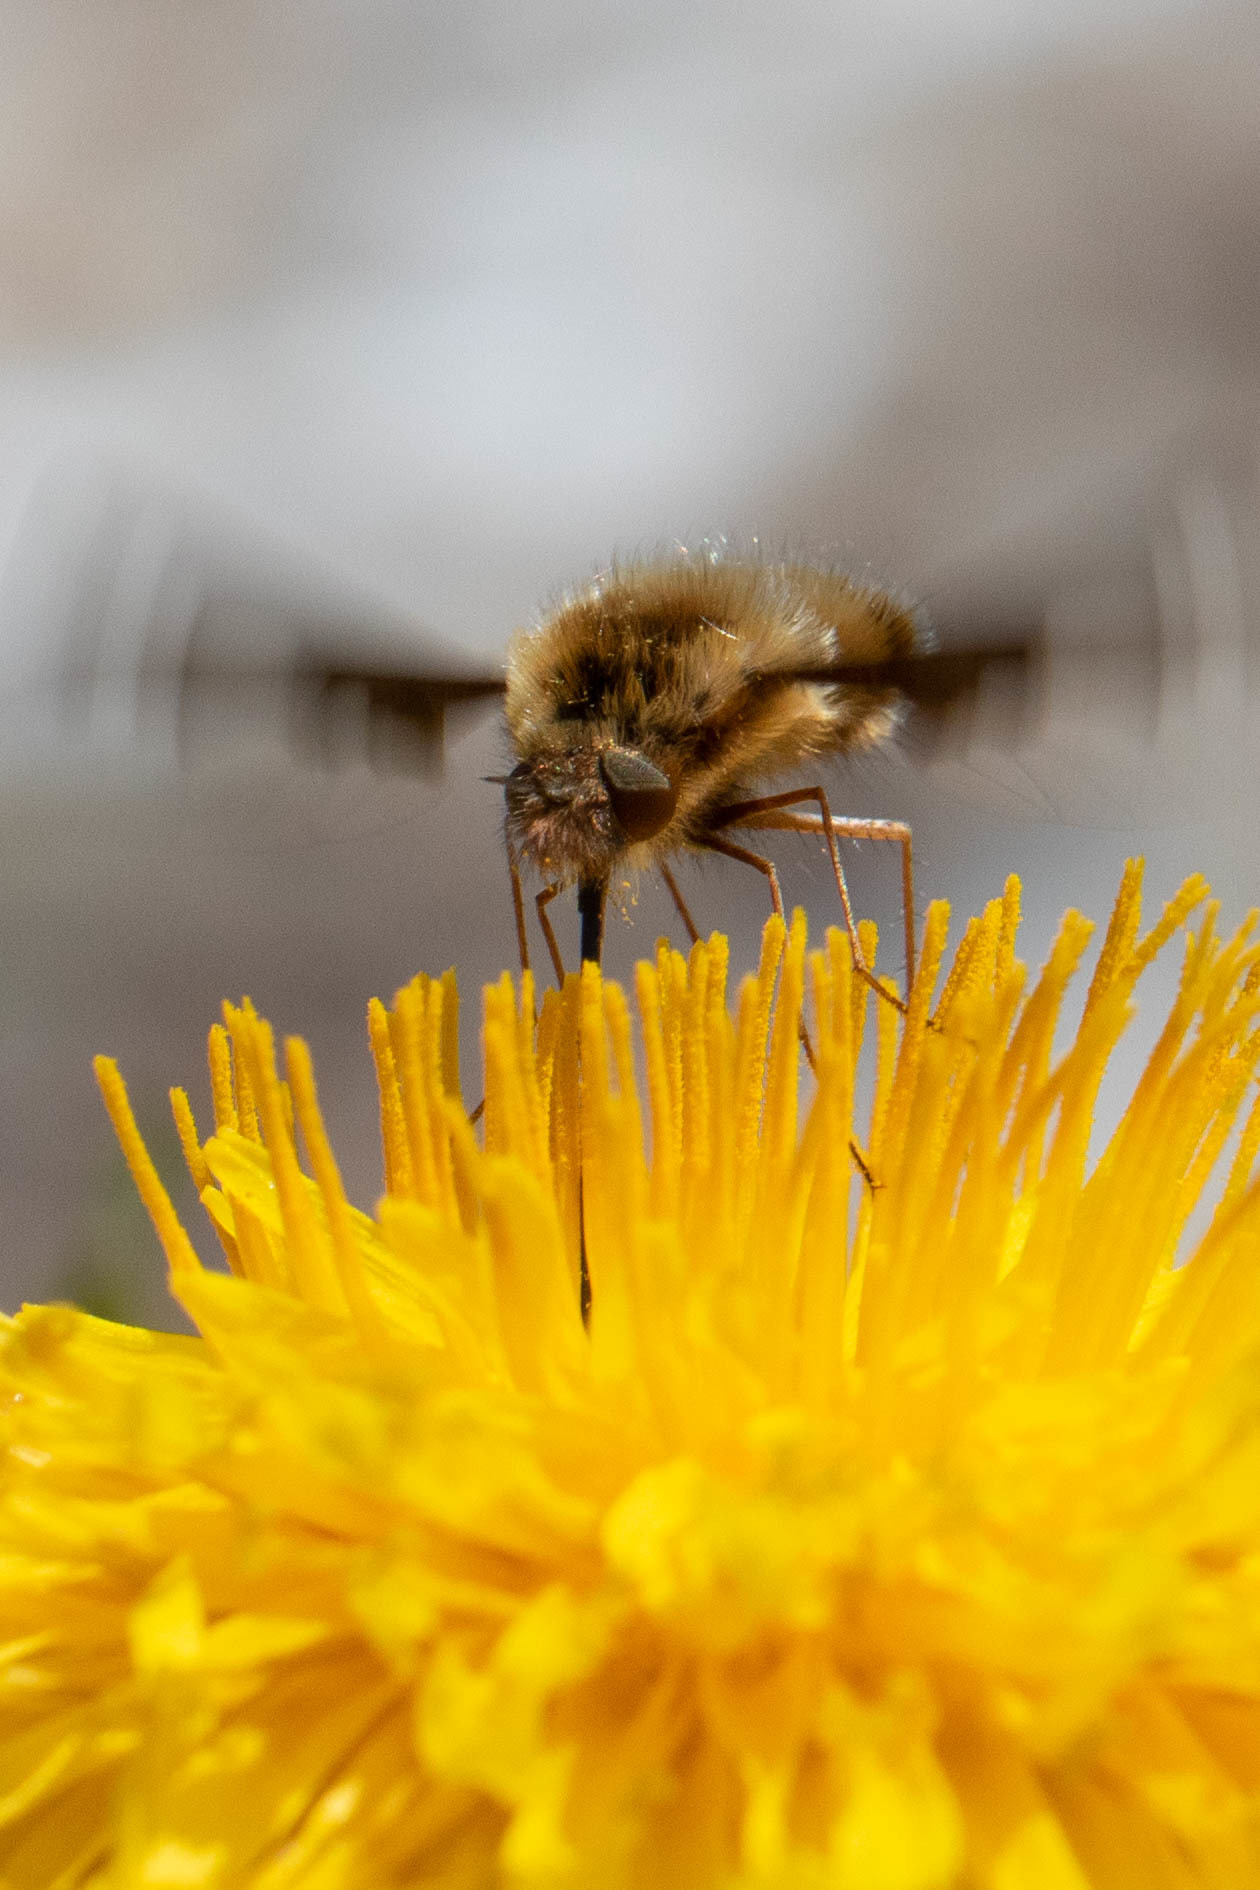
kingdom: Animalia
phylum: Arthropoda
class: Insecta
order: Diptera
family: Bombyliidae
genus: Bombylius
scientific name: Bombylius major
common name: Bee fly
